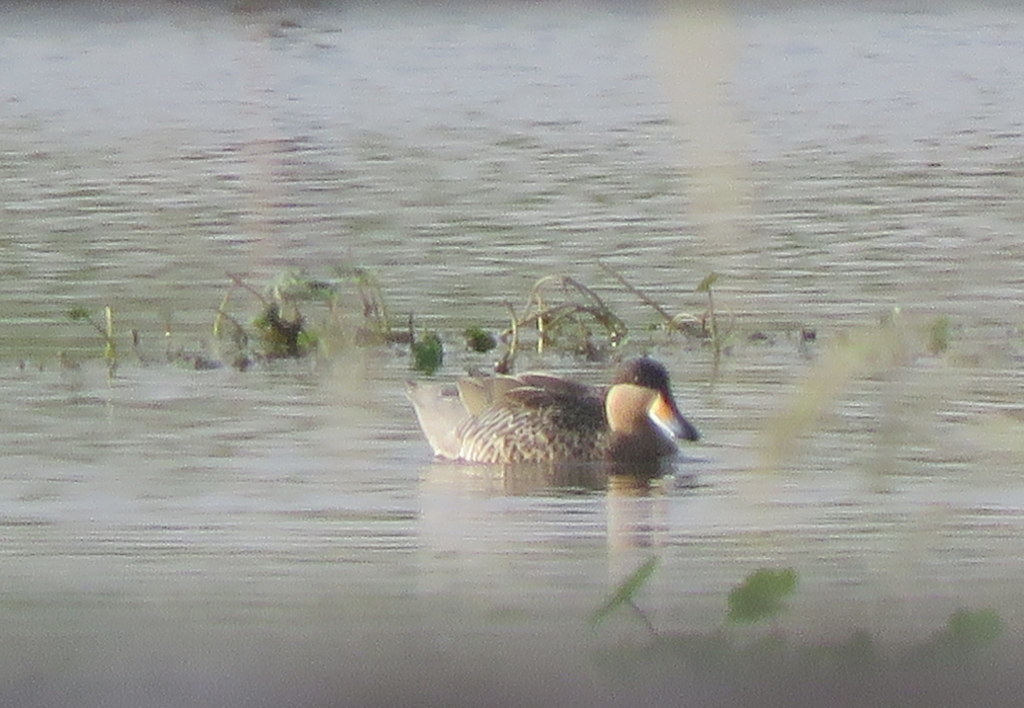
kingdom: Animalia
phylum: Chordata
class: Aves
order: Anseriformes
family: Anatidae
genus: Spatula
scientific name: Spatula versicolor
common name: Silver teal
